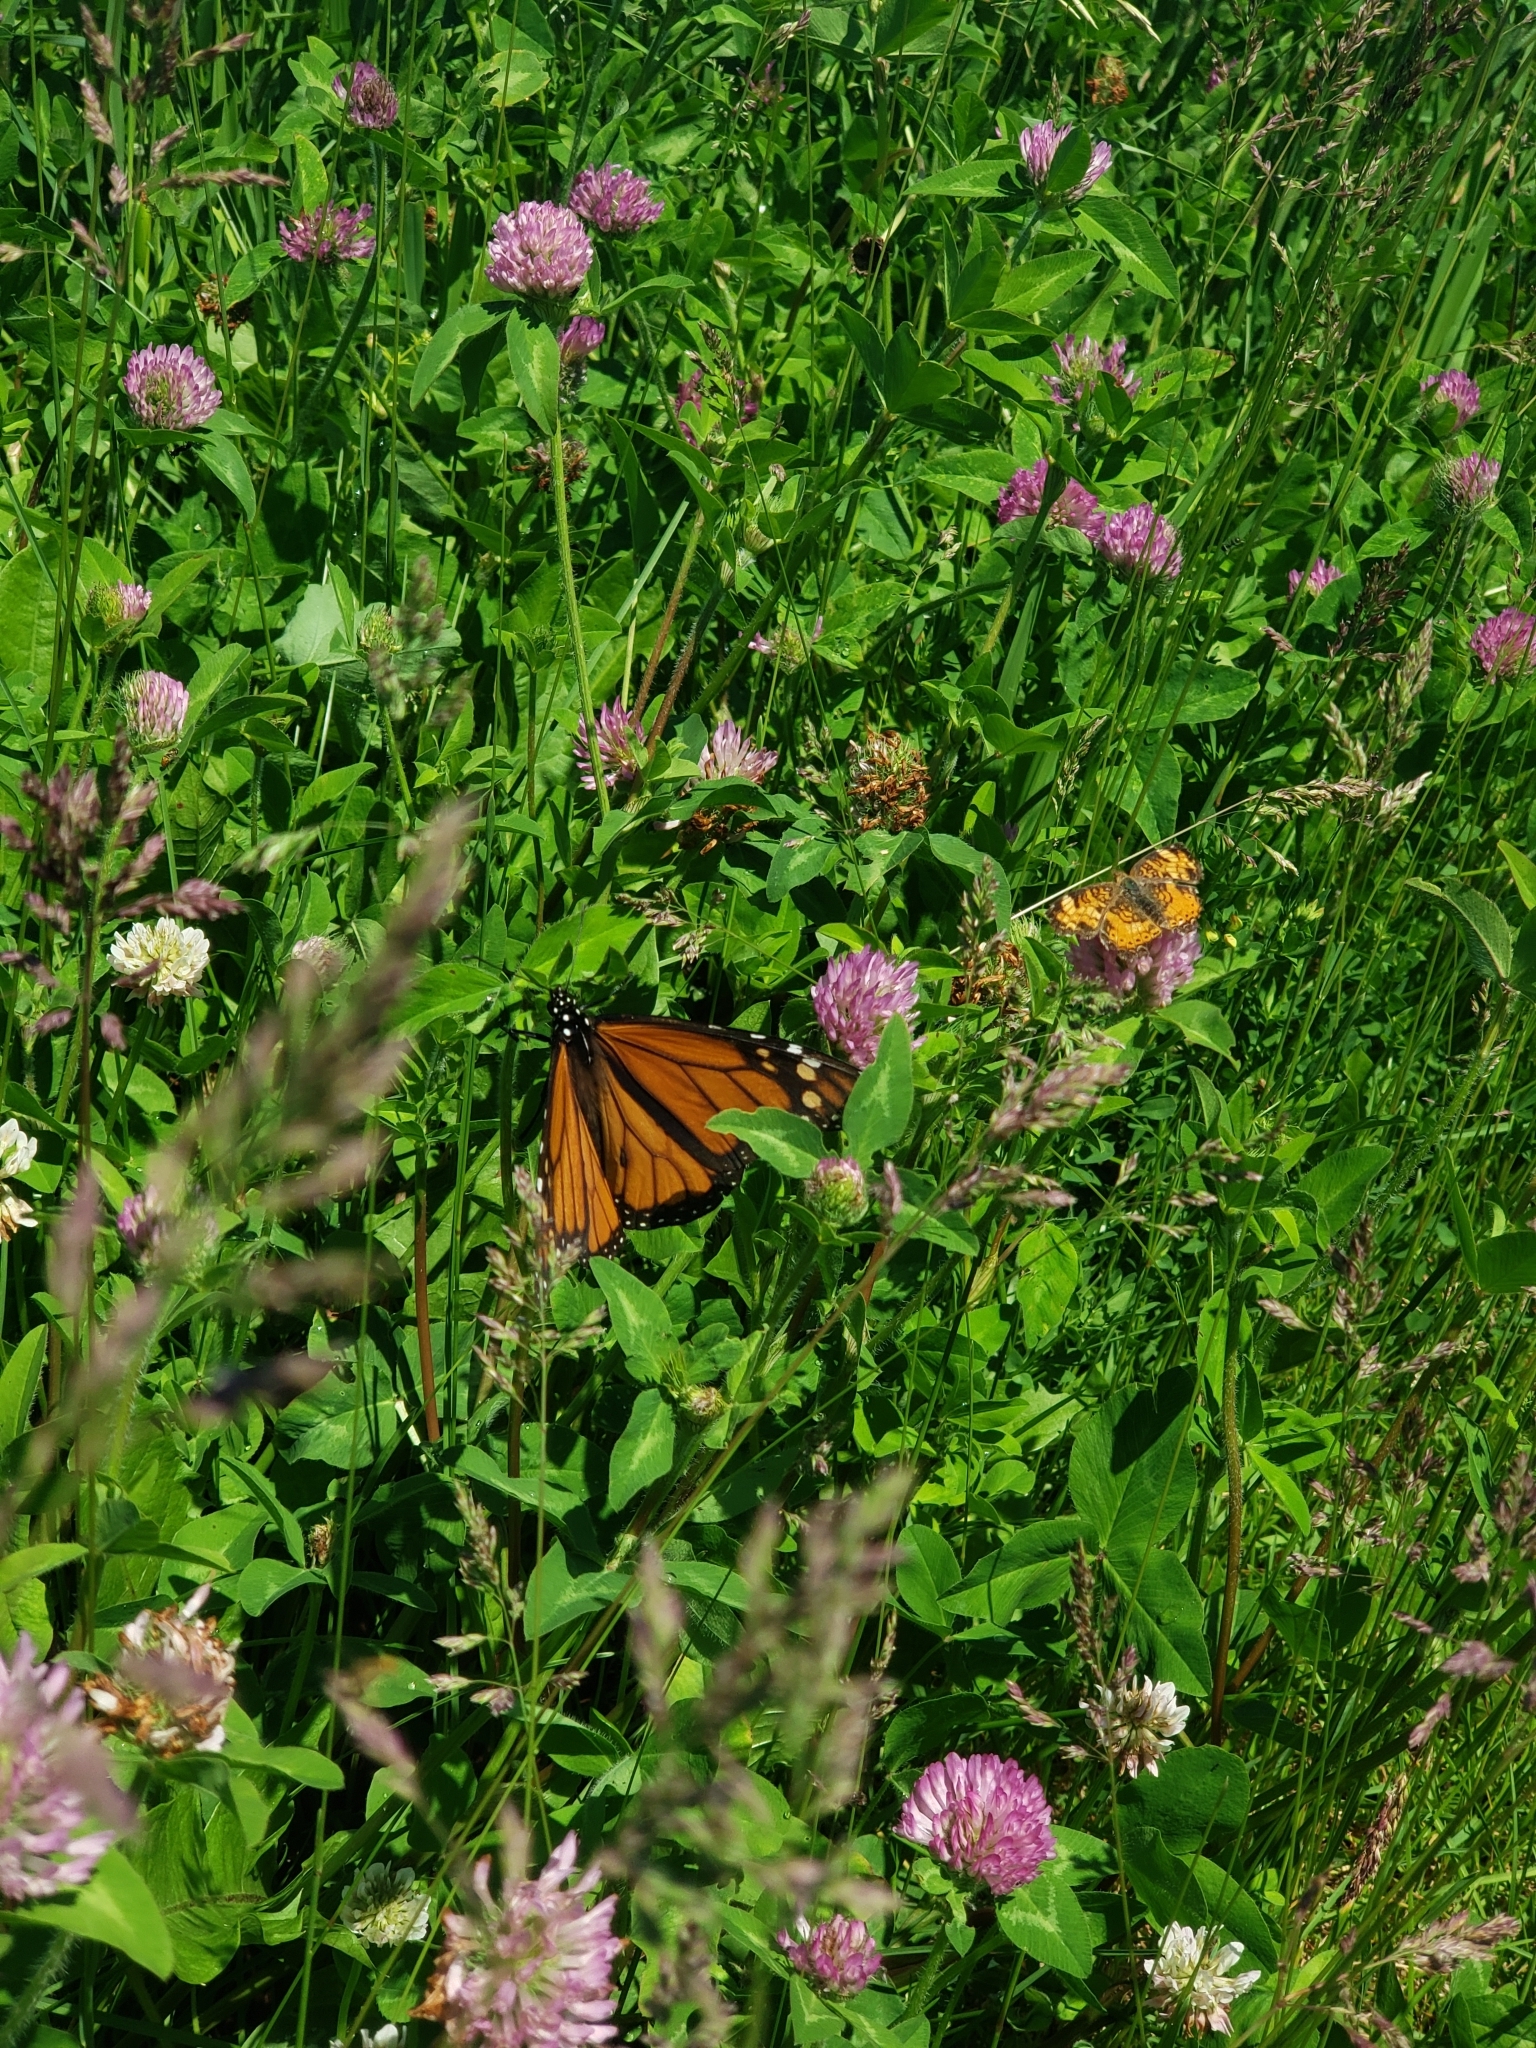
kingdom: Animalia
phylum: Arthropoda
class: Insecta
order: Lepidoptera
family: Nymphalidae
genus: Danaus
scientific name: Danaus plexippus
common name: Monarch
